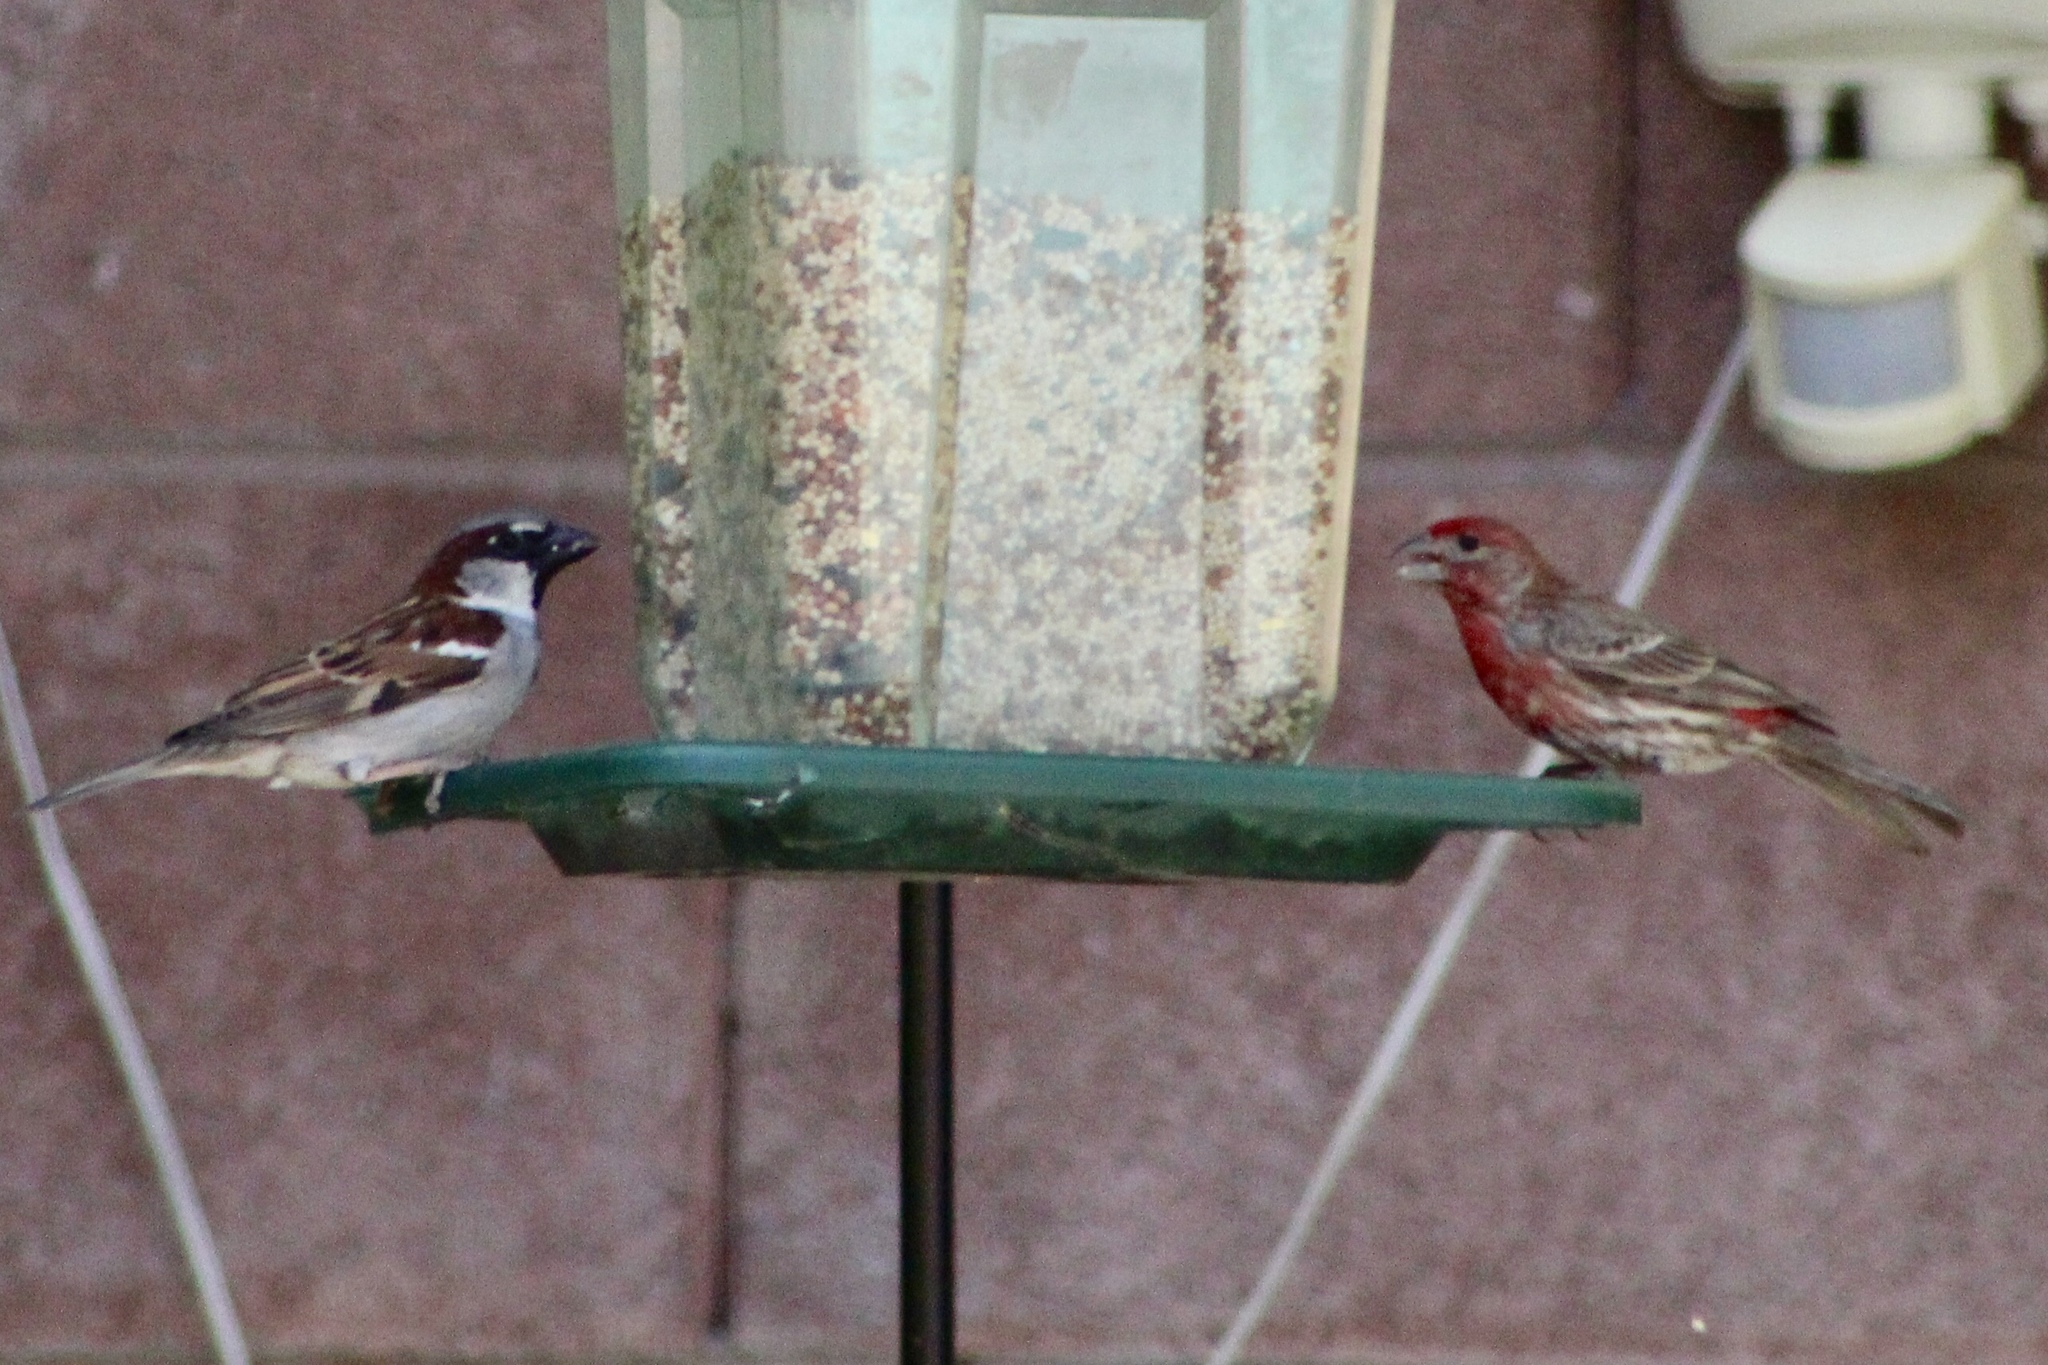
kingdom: Animalia
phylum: Chordata
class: Aves
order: Passeriformes
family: Passeridae
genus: Passer
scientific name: Passer domesticus
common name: House sparrow
